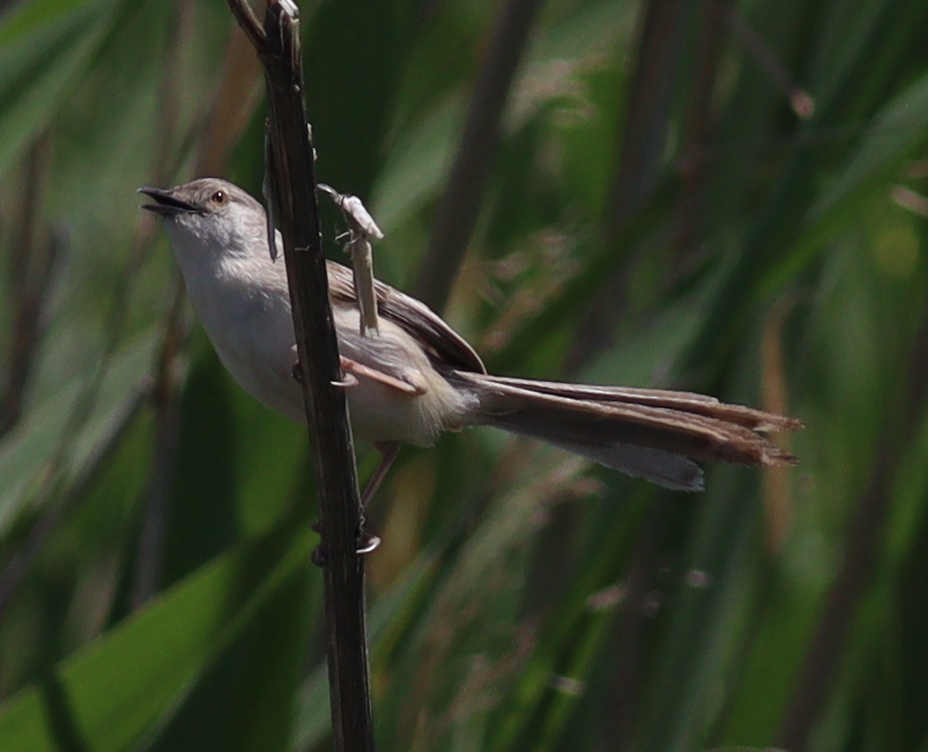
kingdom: Animalia
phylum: Chordata
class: Aves
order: Passeriformes
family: Cisticolidae
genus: Prinia
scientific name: Prinia lepida
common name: Delicate prinia
